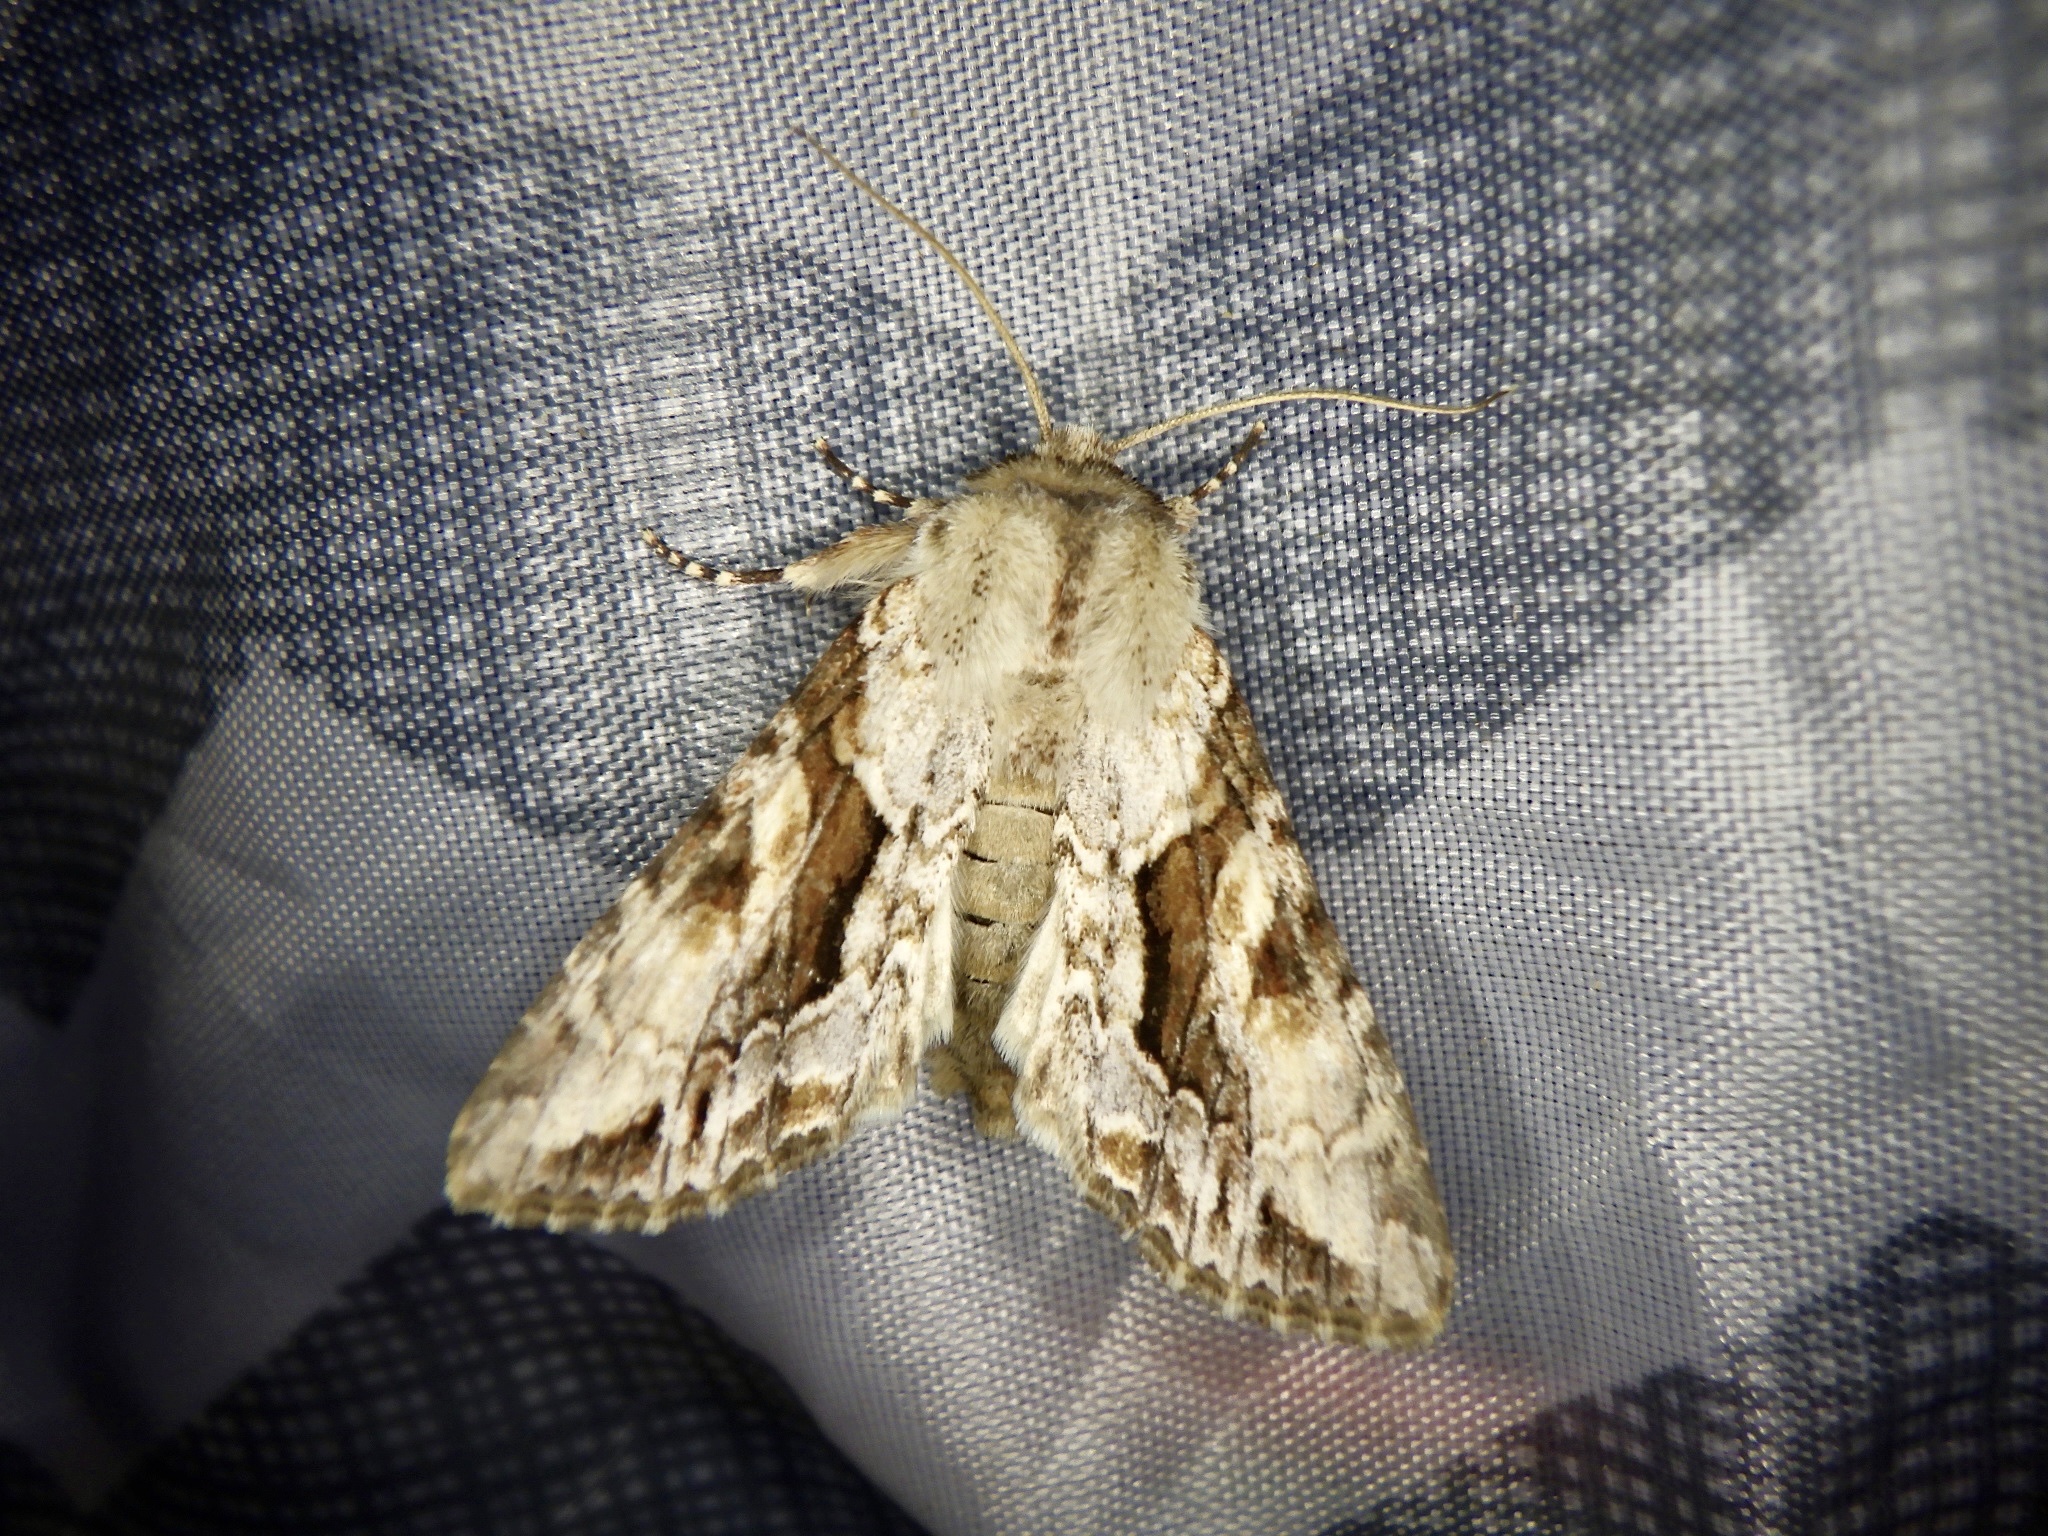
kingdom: Animalia
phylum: Arthropoda
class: Insecta
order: Lepidoptera
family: Noctuidae
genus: Xylopolia
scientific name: Xylopolia bella
